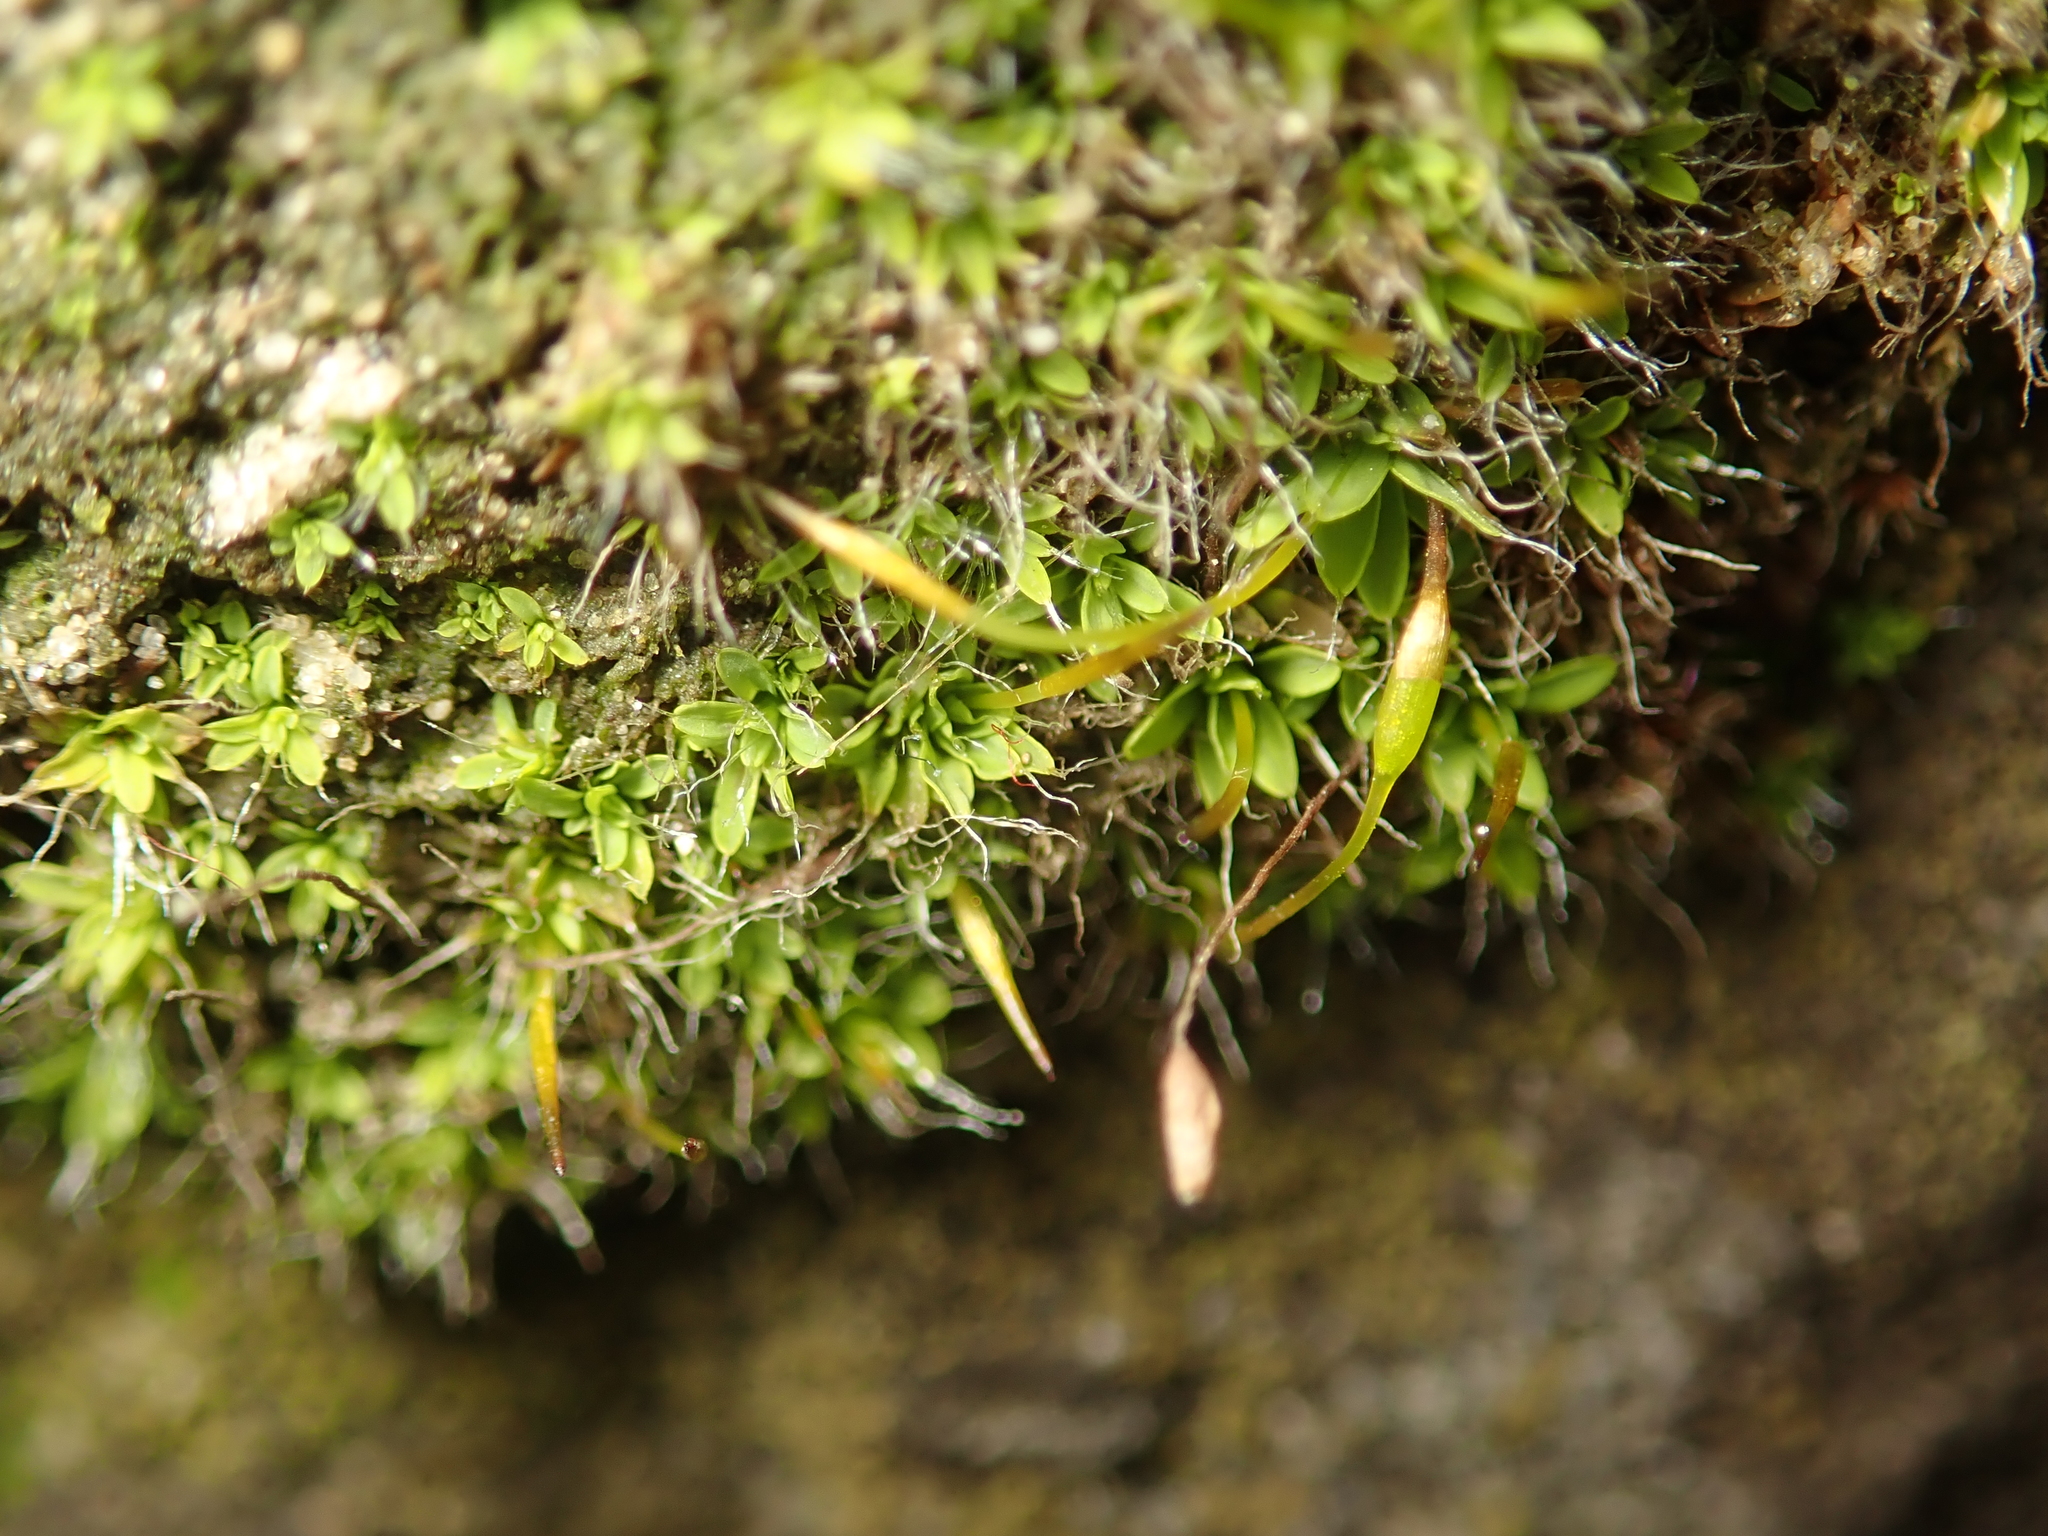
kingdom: Plantae
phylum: Bryophyta
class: Bryopsida
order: Pottiales
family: Pottiaceae
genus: Tortula
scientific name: Tortula muralis
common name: Wall screw-moss
